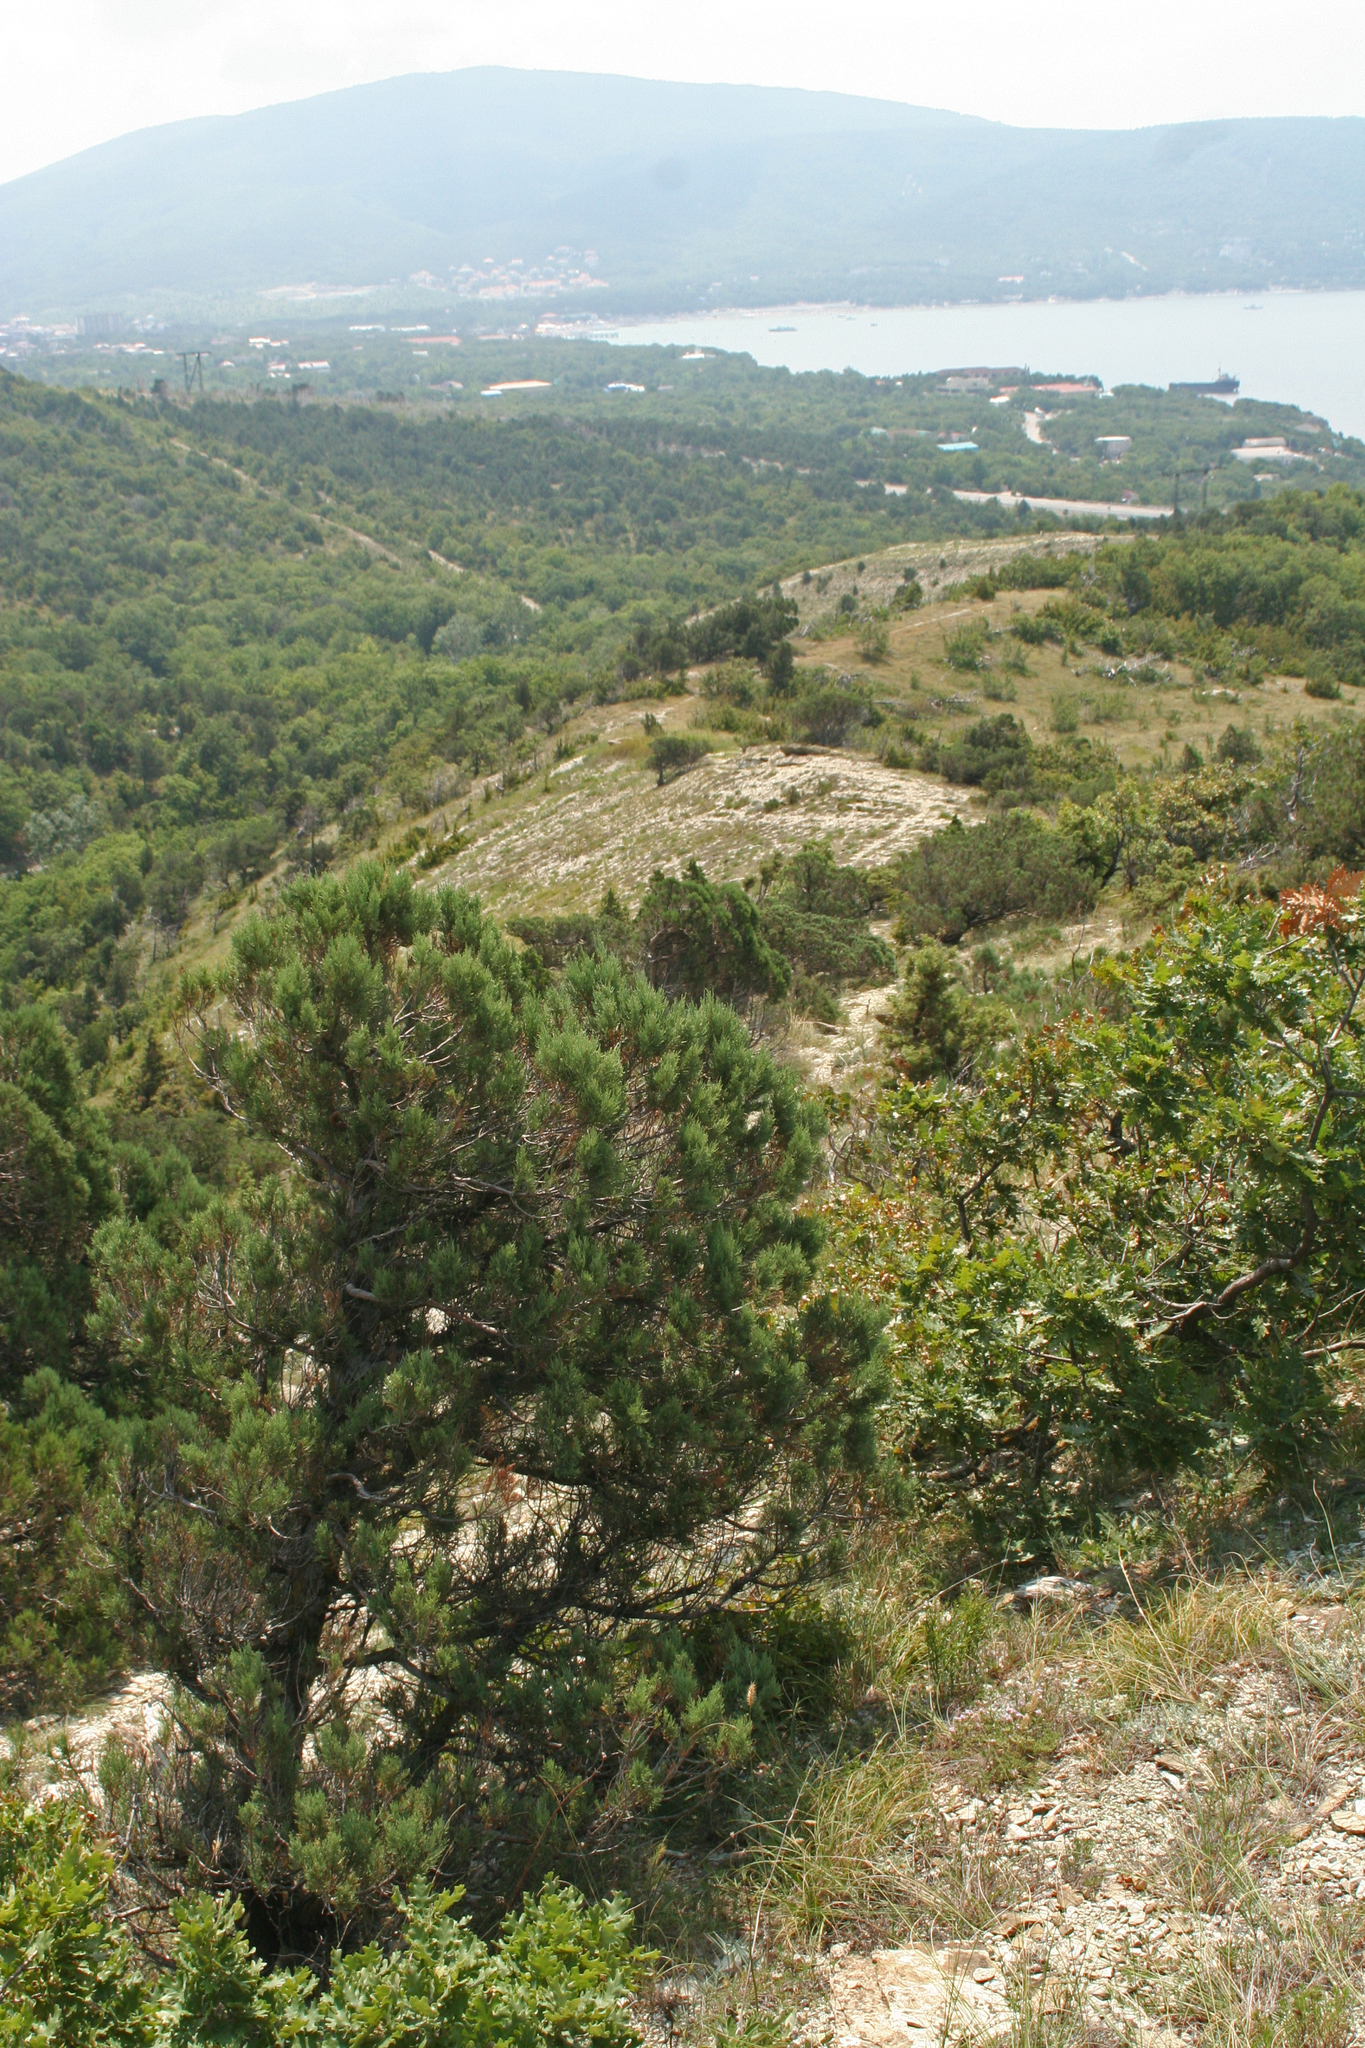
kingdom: Plantae
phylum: Tracheophyta
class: Pinopsida
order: Pinales
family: Cupressaceae
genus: Juniperus
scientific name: Juniperus excelsa
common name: Crimean juniper
